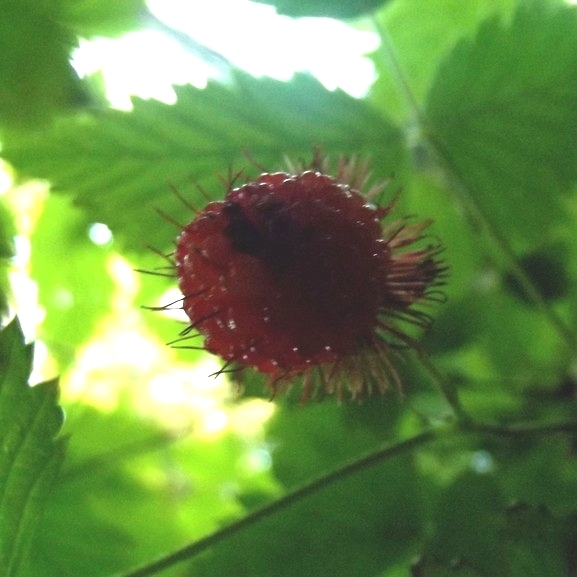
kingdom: Plantae
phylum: Tracheophyta
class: Magnoliopsida
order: Rosales
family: Rosaceae
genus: Rubus
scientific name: Rubus spectabilis
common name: Salmonberry
